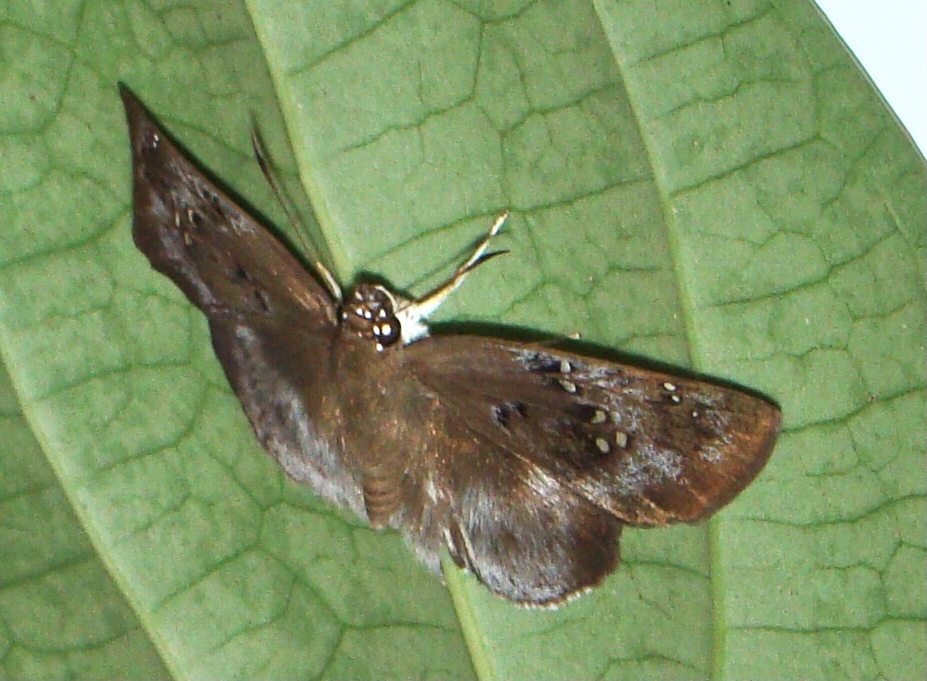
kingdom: Animalia
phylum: Arthropoda
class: Insecta
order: Lepidoptera
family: Hesperiidae
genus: Tagiades
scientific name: Tagiades flesus
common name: Clouded flat
